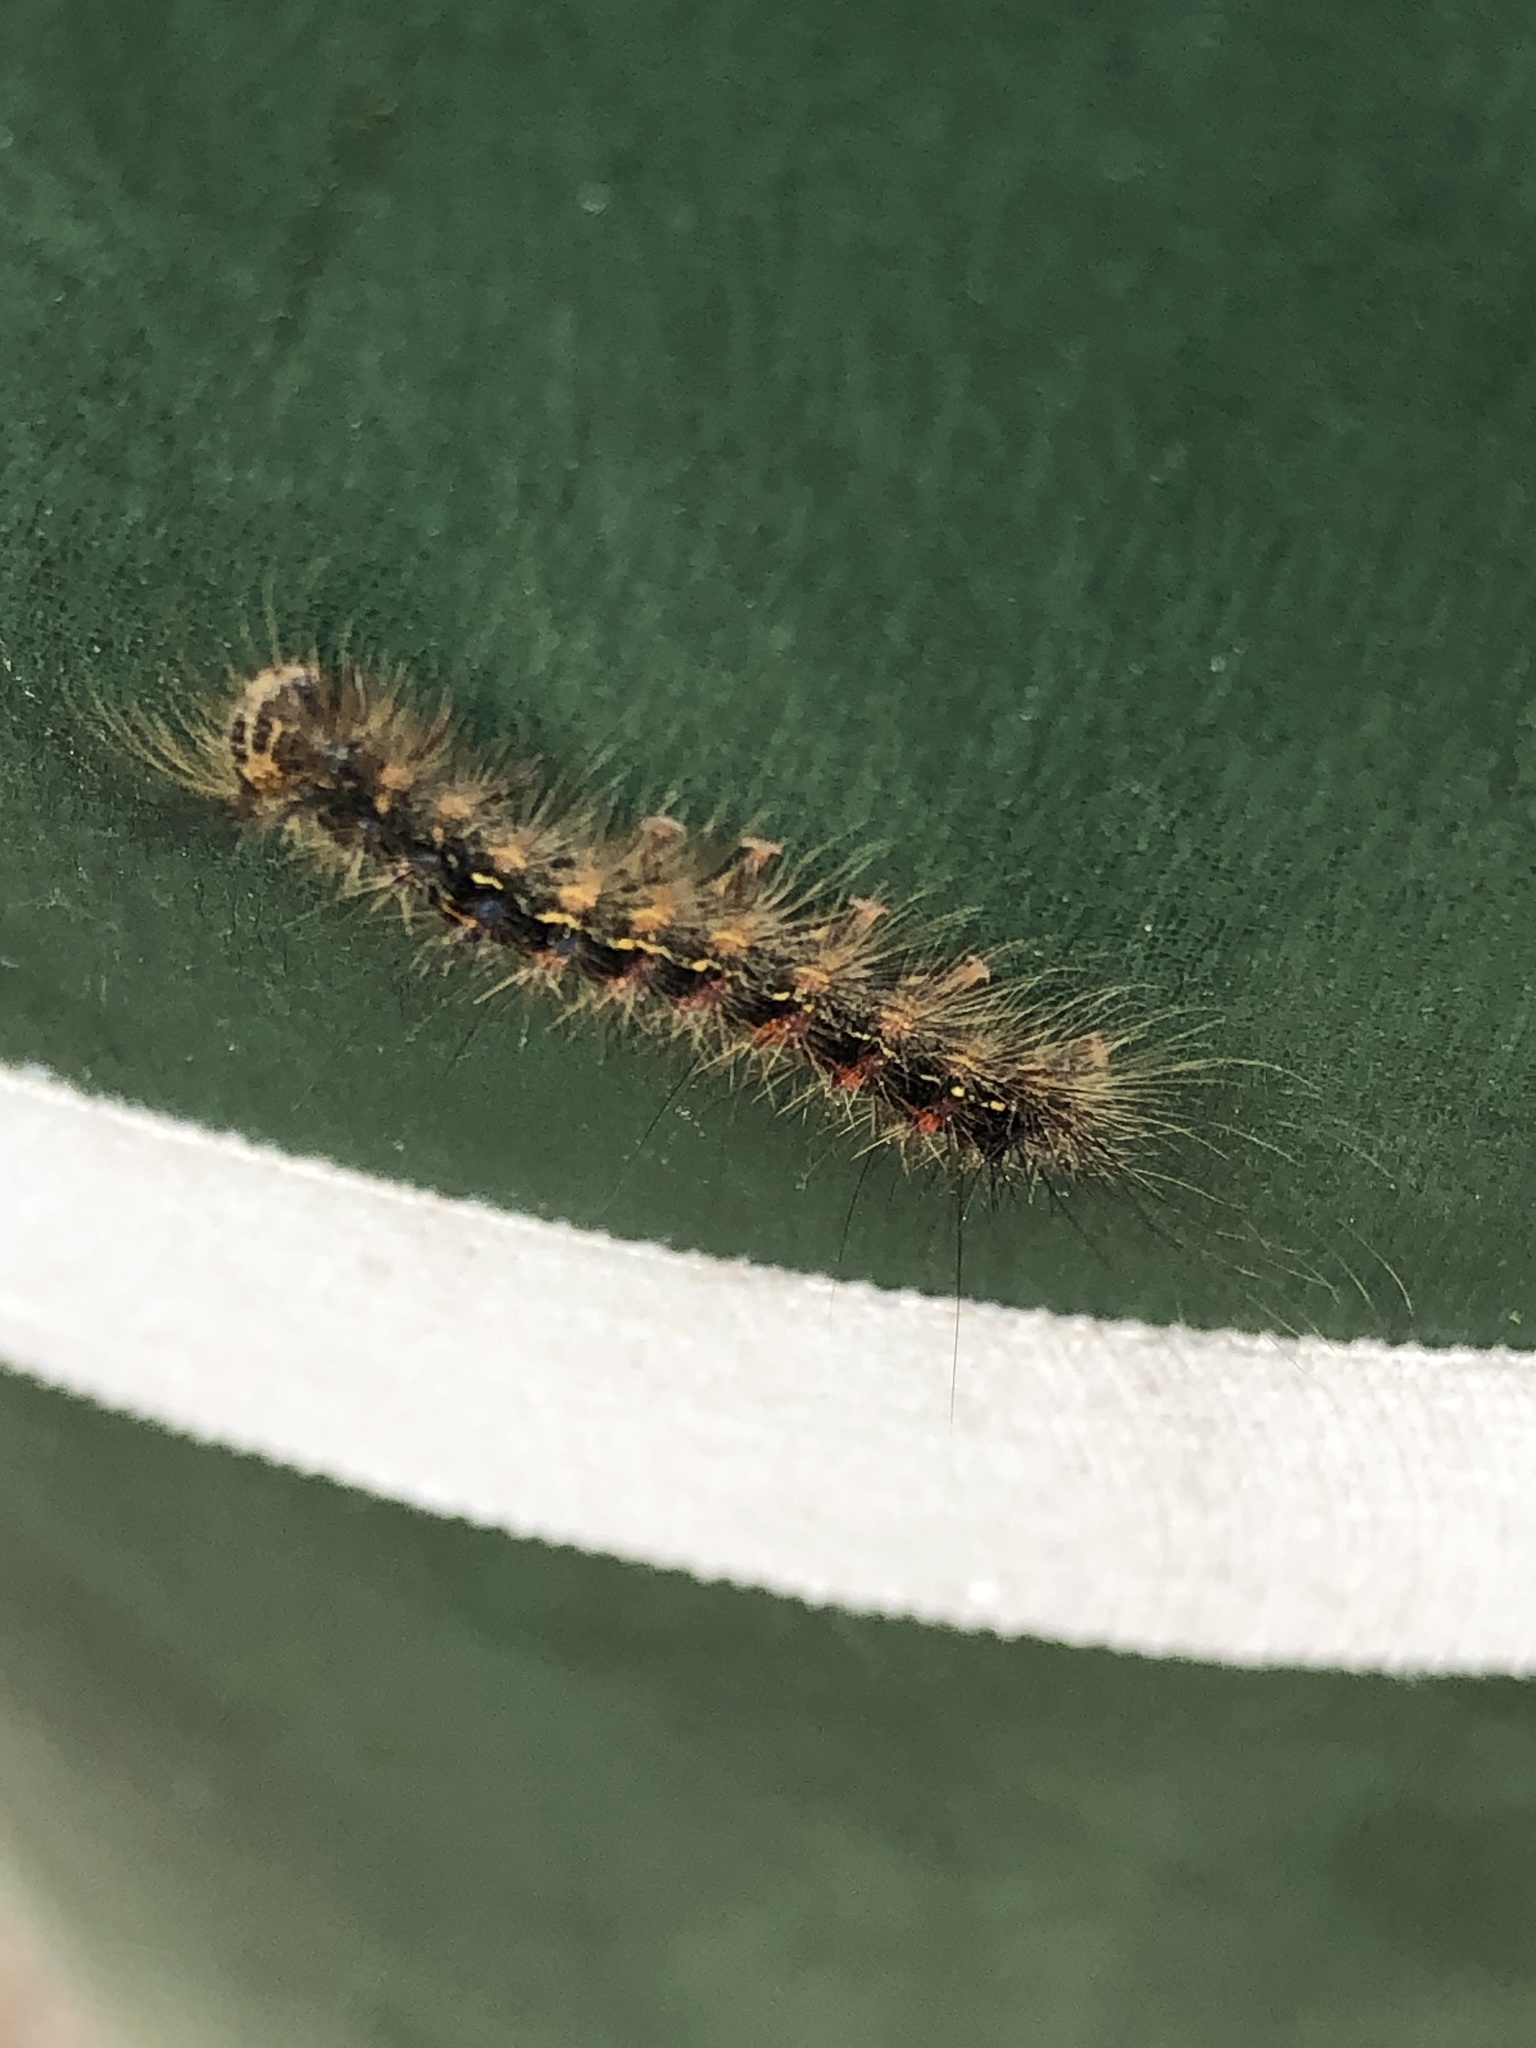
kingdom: Animalia
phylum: Arthropoda
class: Insecta
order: Lepidoptera
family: Erebidae
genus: Lymantria
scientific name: Lymantria dispar
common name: Gypsy moth
